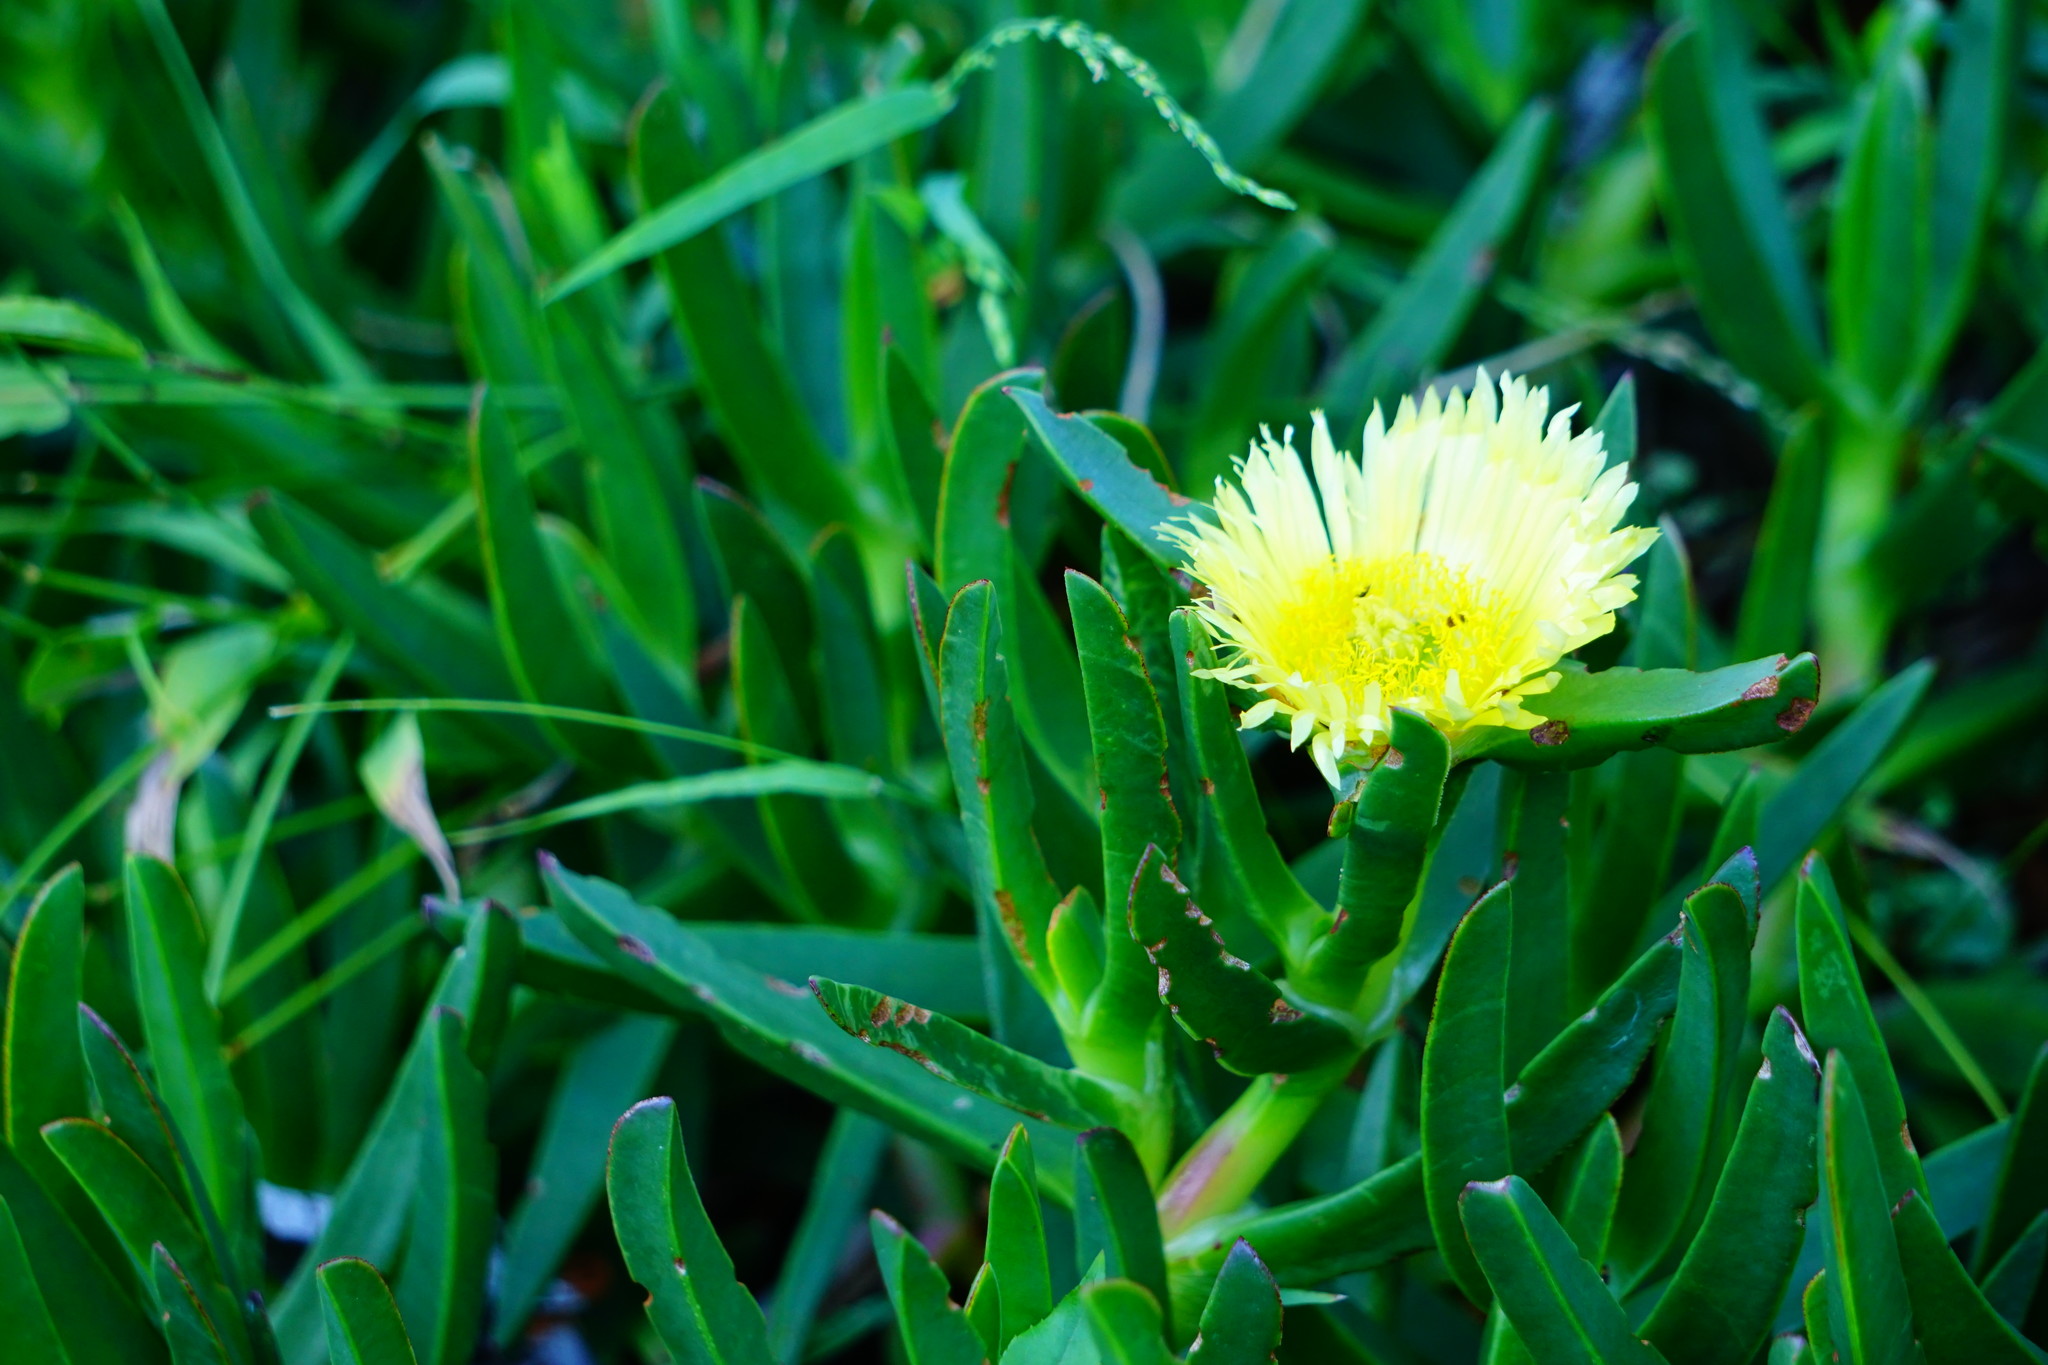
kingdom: Plantae
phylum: Tracheophyta
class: Magnoliopsida
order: Caryophyllales
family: Aizoaceae
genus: Carpobrotus
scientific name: Carpobrotus edulis
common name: Hottentot-fig
